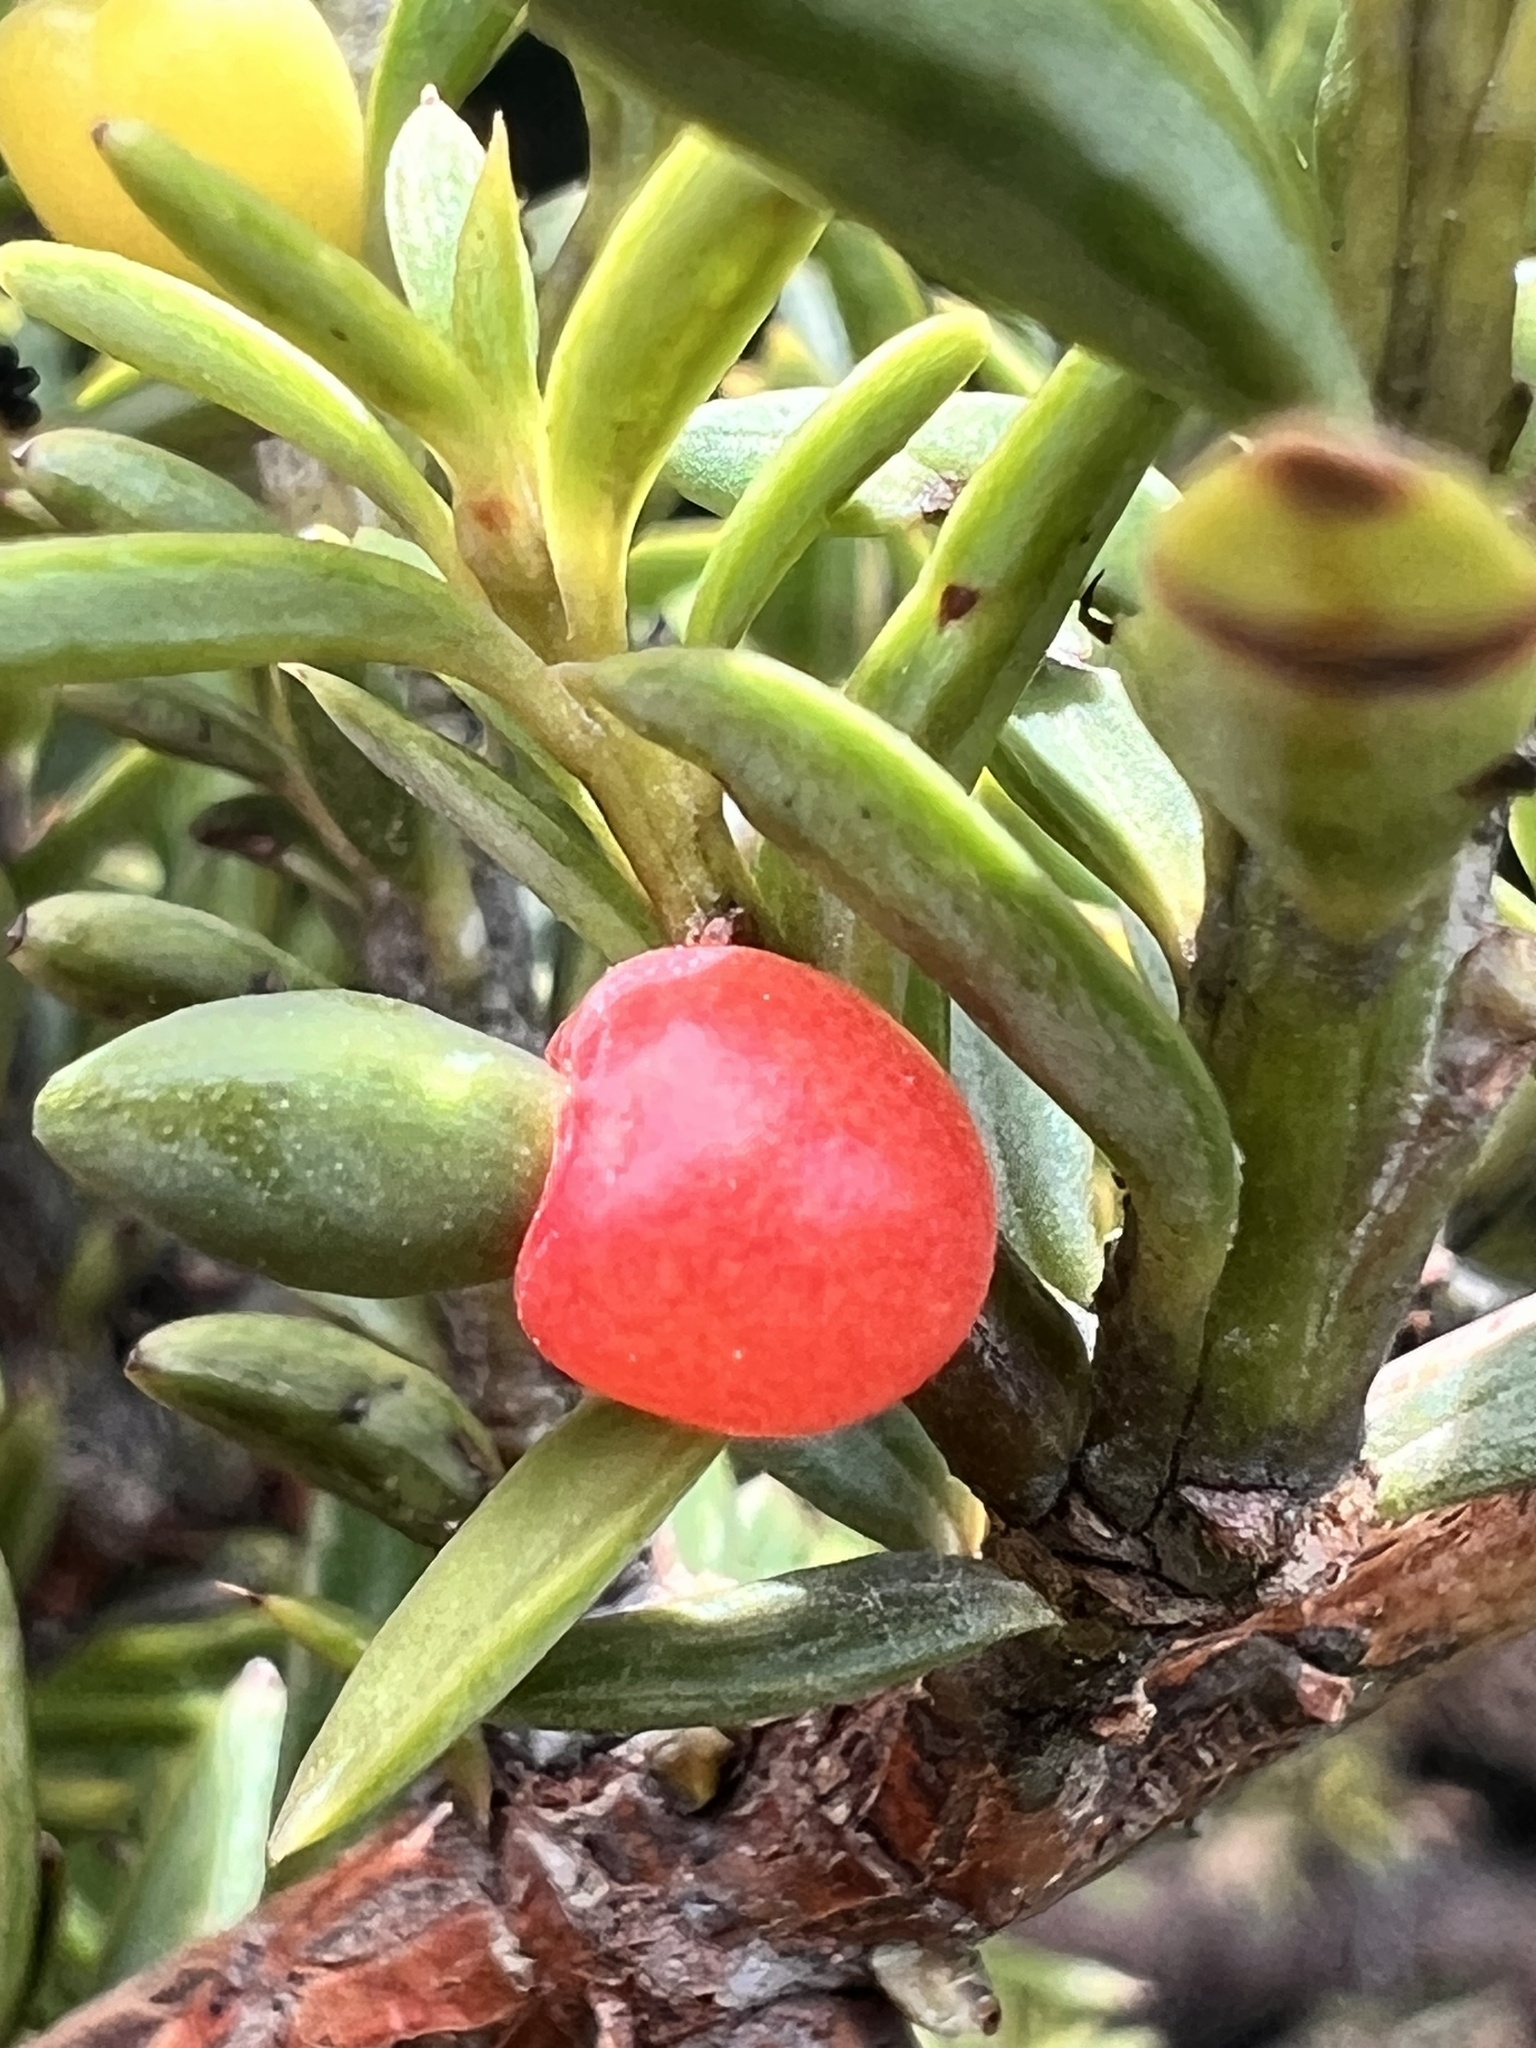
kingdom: Plantae
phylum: Tracheophyta
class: Pinopsida
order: Pinales
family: Podocarpaceae
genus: Podocarpus
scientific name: Podocarpus nivalis
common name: Alpine totara
